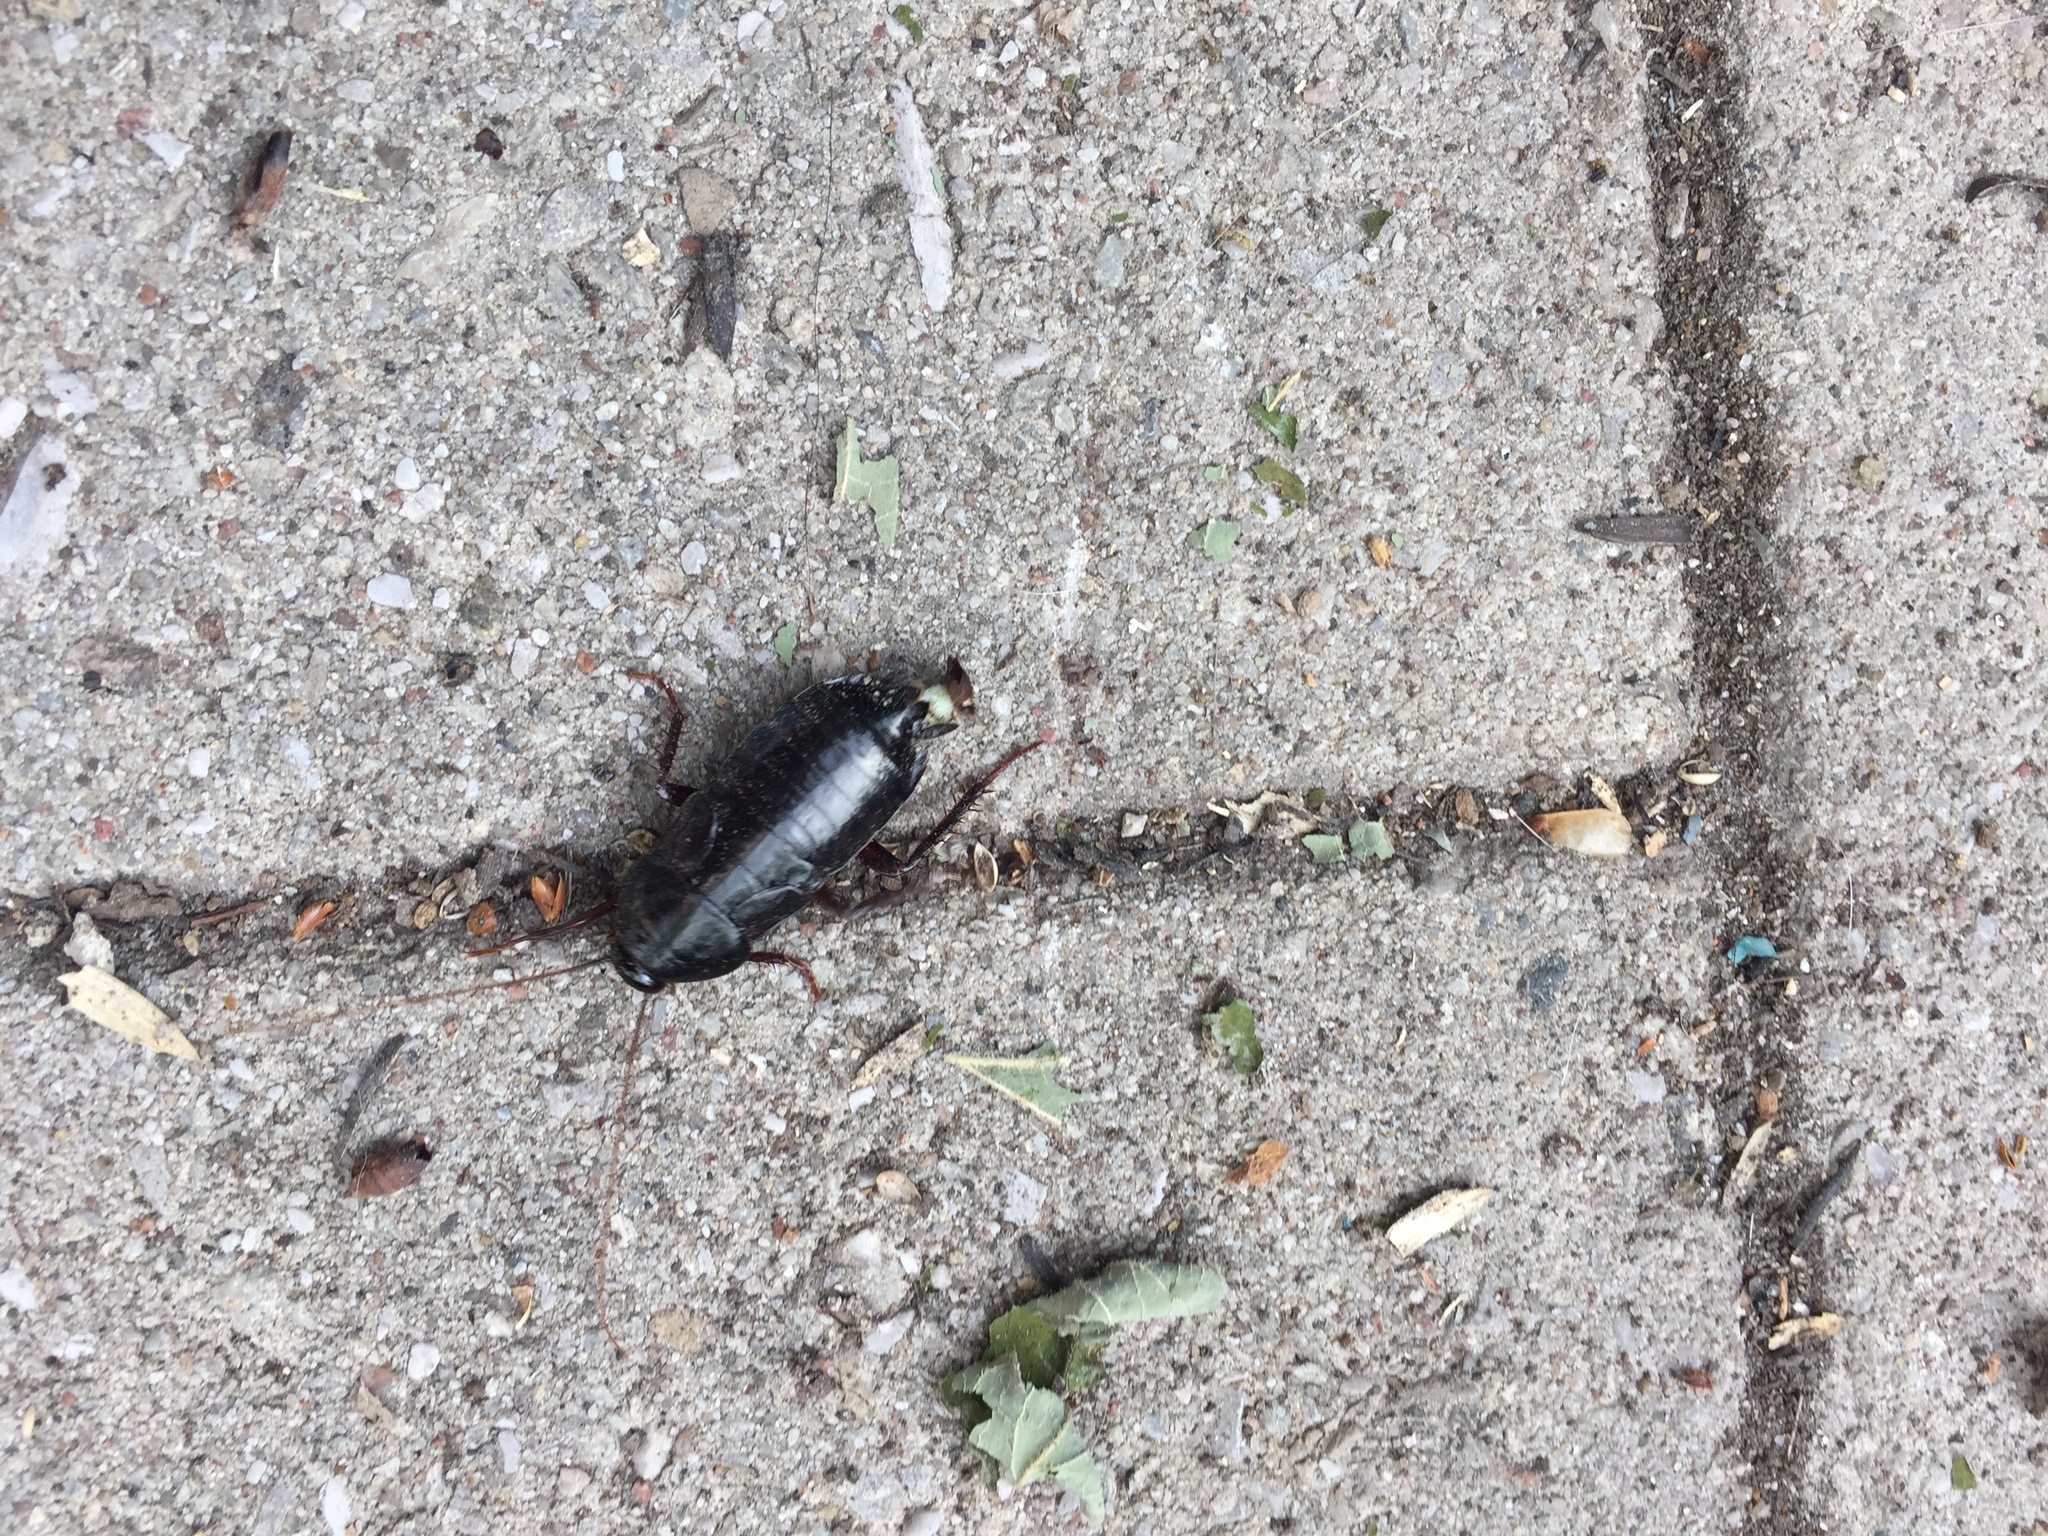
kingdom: Animalia
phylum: Arthropoda
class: Insecta
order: Blattodea
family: Blattidae
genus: Blatta
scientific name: Blatta orientalis
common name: Oriental cockroach
